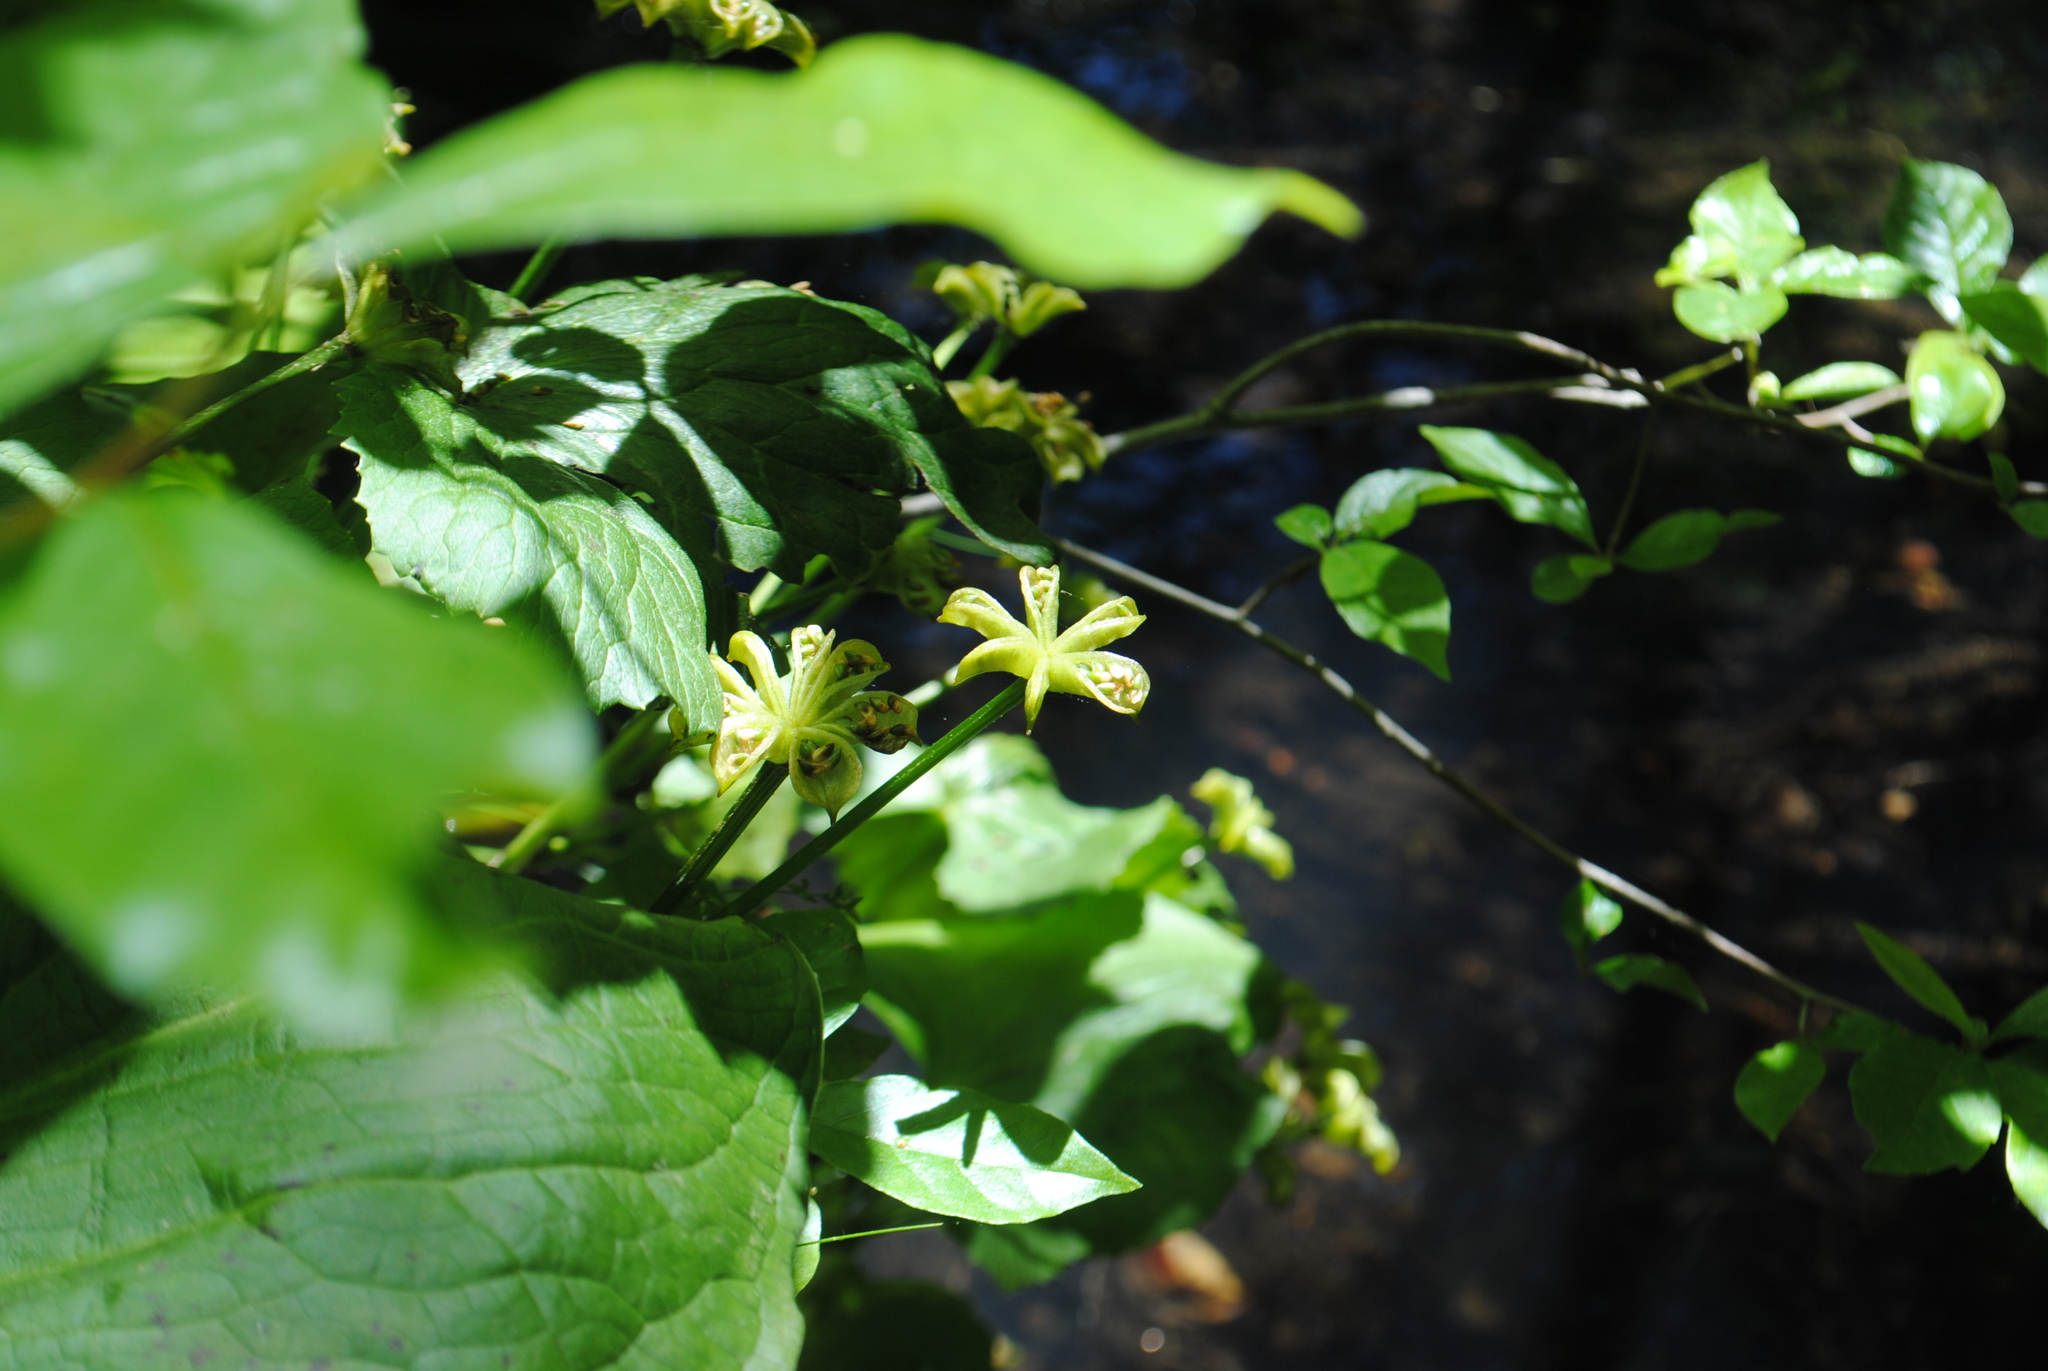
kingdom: Plantae
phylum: Tracheophyta
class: Magnoliopsida
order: Ranunculales
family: Ranunculaceae
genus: Caltha
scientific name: Caltha palustris
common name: Marsh marigold
